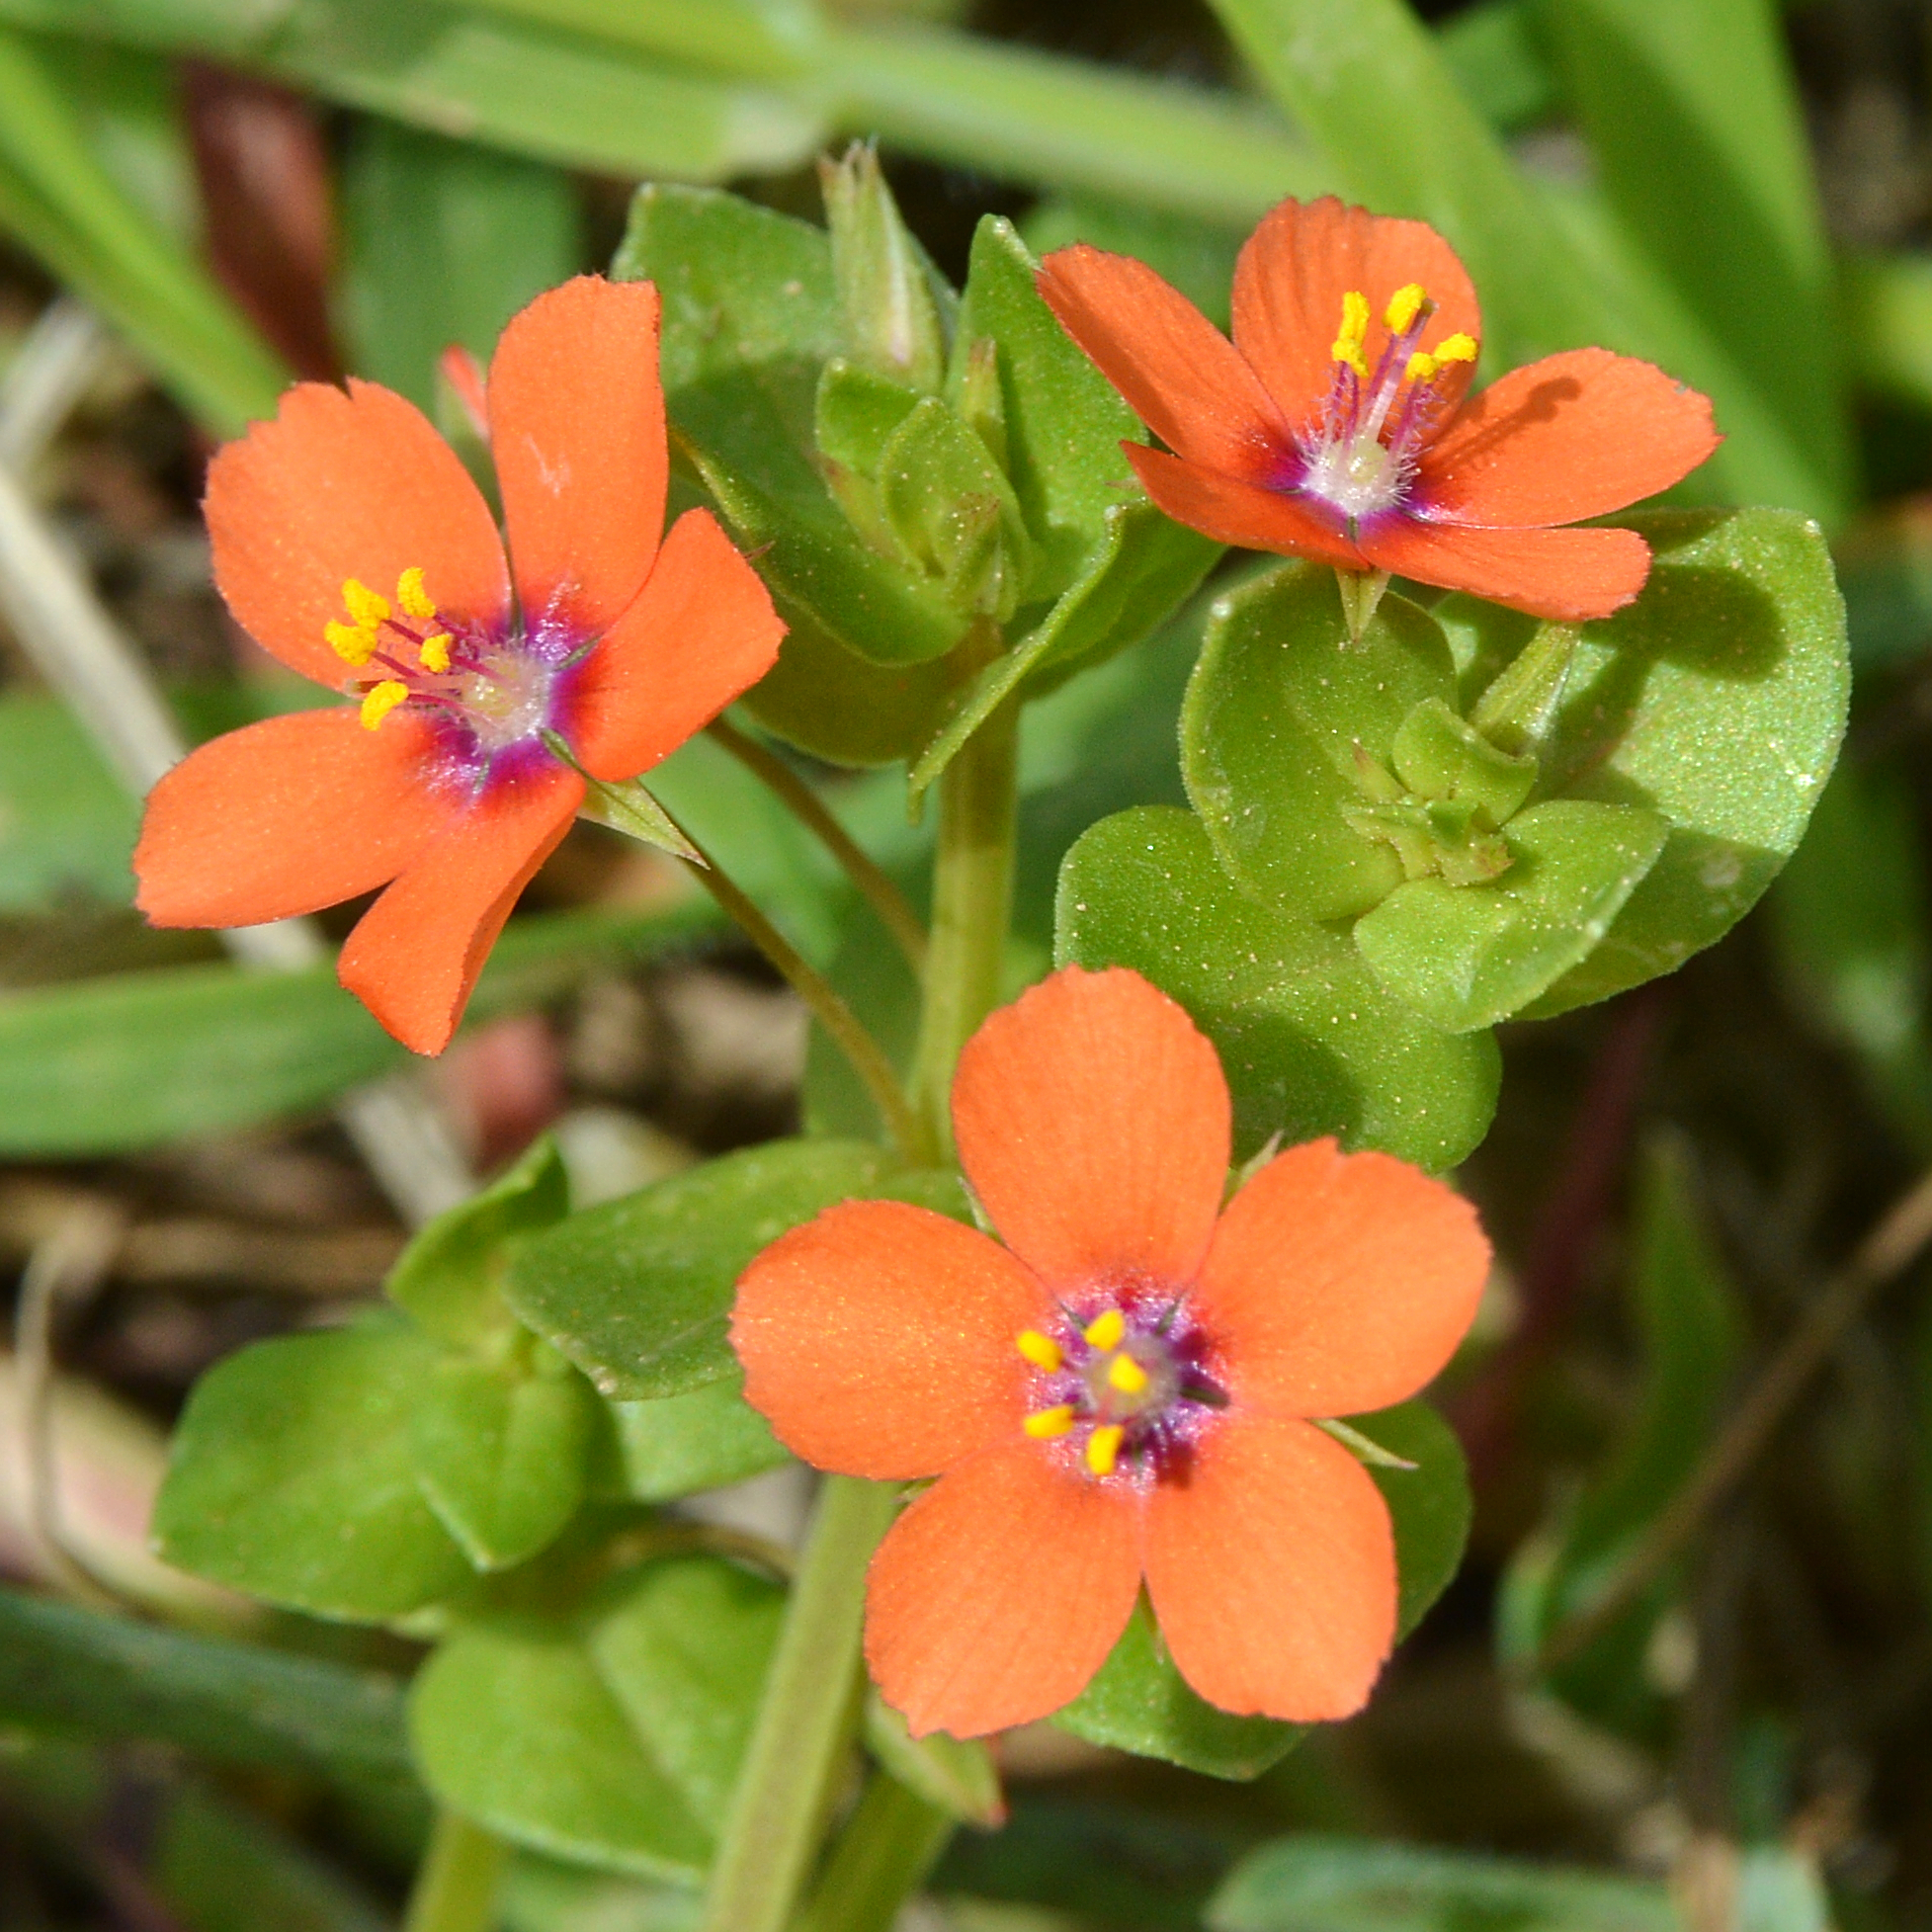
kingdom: Plantae
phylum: Tracheophyta
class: Magnoliopsida
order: Ericales
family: Primulaceae
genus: Lysimachia
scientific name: Lysimachia arvensis
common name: Scarlet pimpernel
